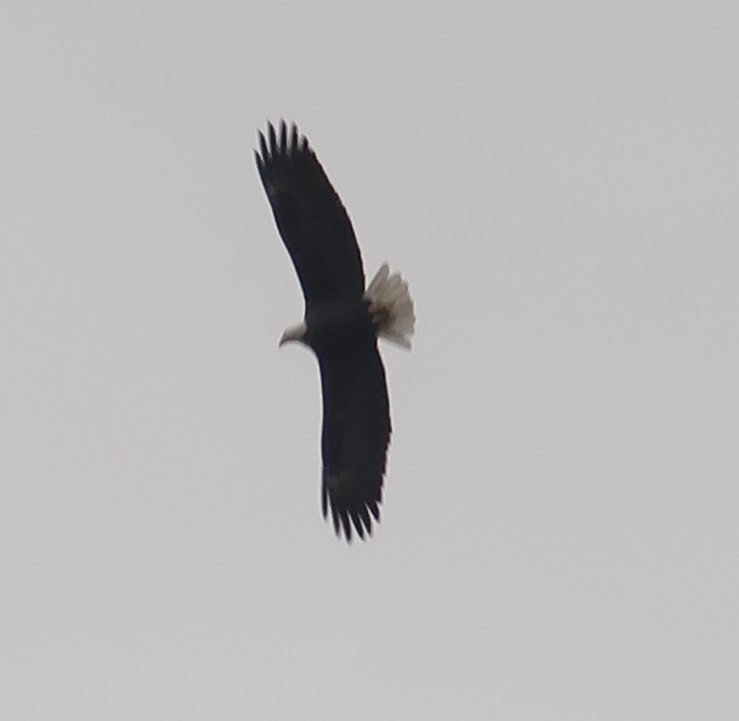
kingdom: Animalia
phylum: Chordata
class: Aves
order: Accipitriformes
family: Accipitridae
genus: Haliaeetus
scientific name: Haliaeetus leucocephalus
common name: Bald eagle
